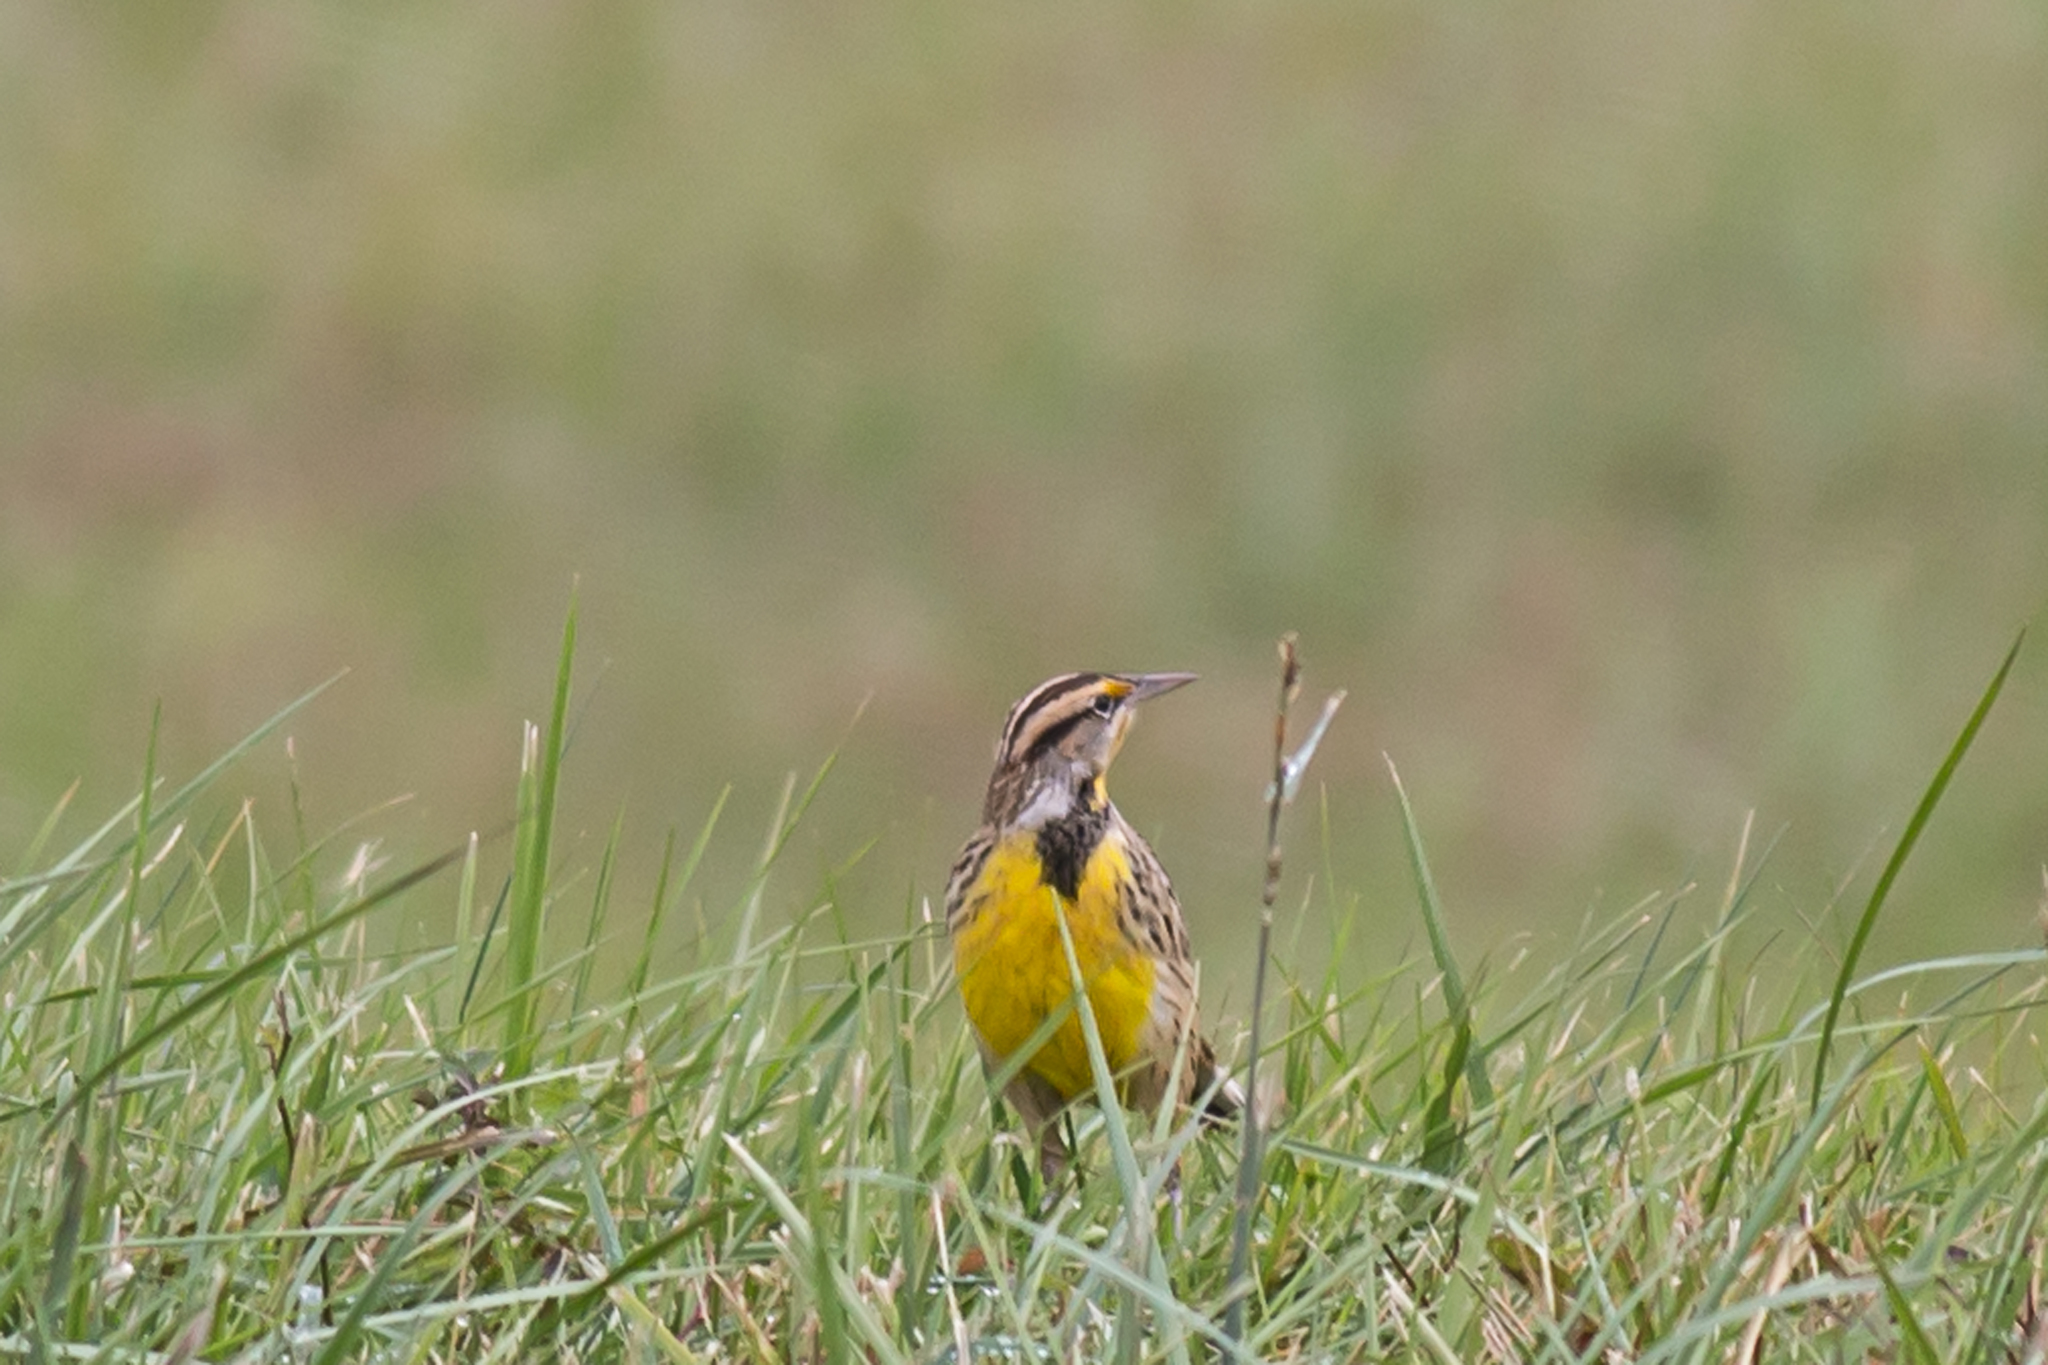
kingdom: Animalia
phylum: Chordata
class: Aves
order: Passeriformes
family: Icteridae
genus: Sturnella
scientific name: Sturnella magna
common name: Eastern meadowlark
